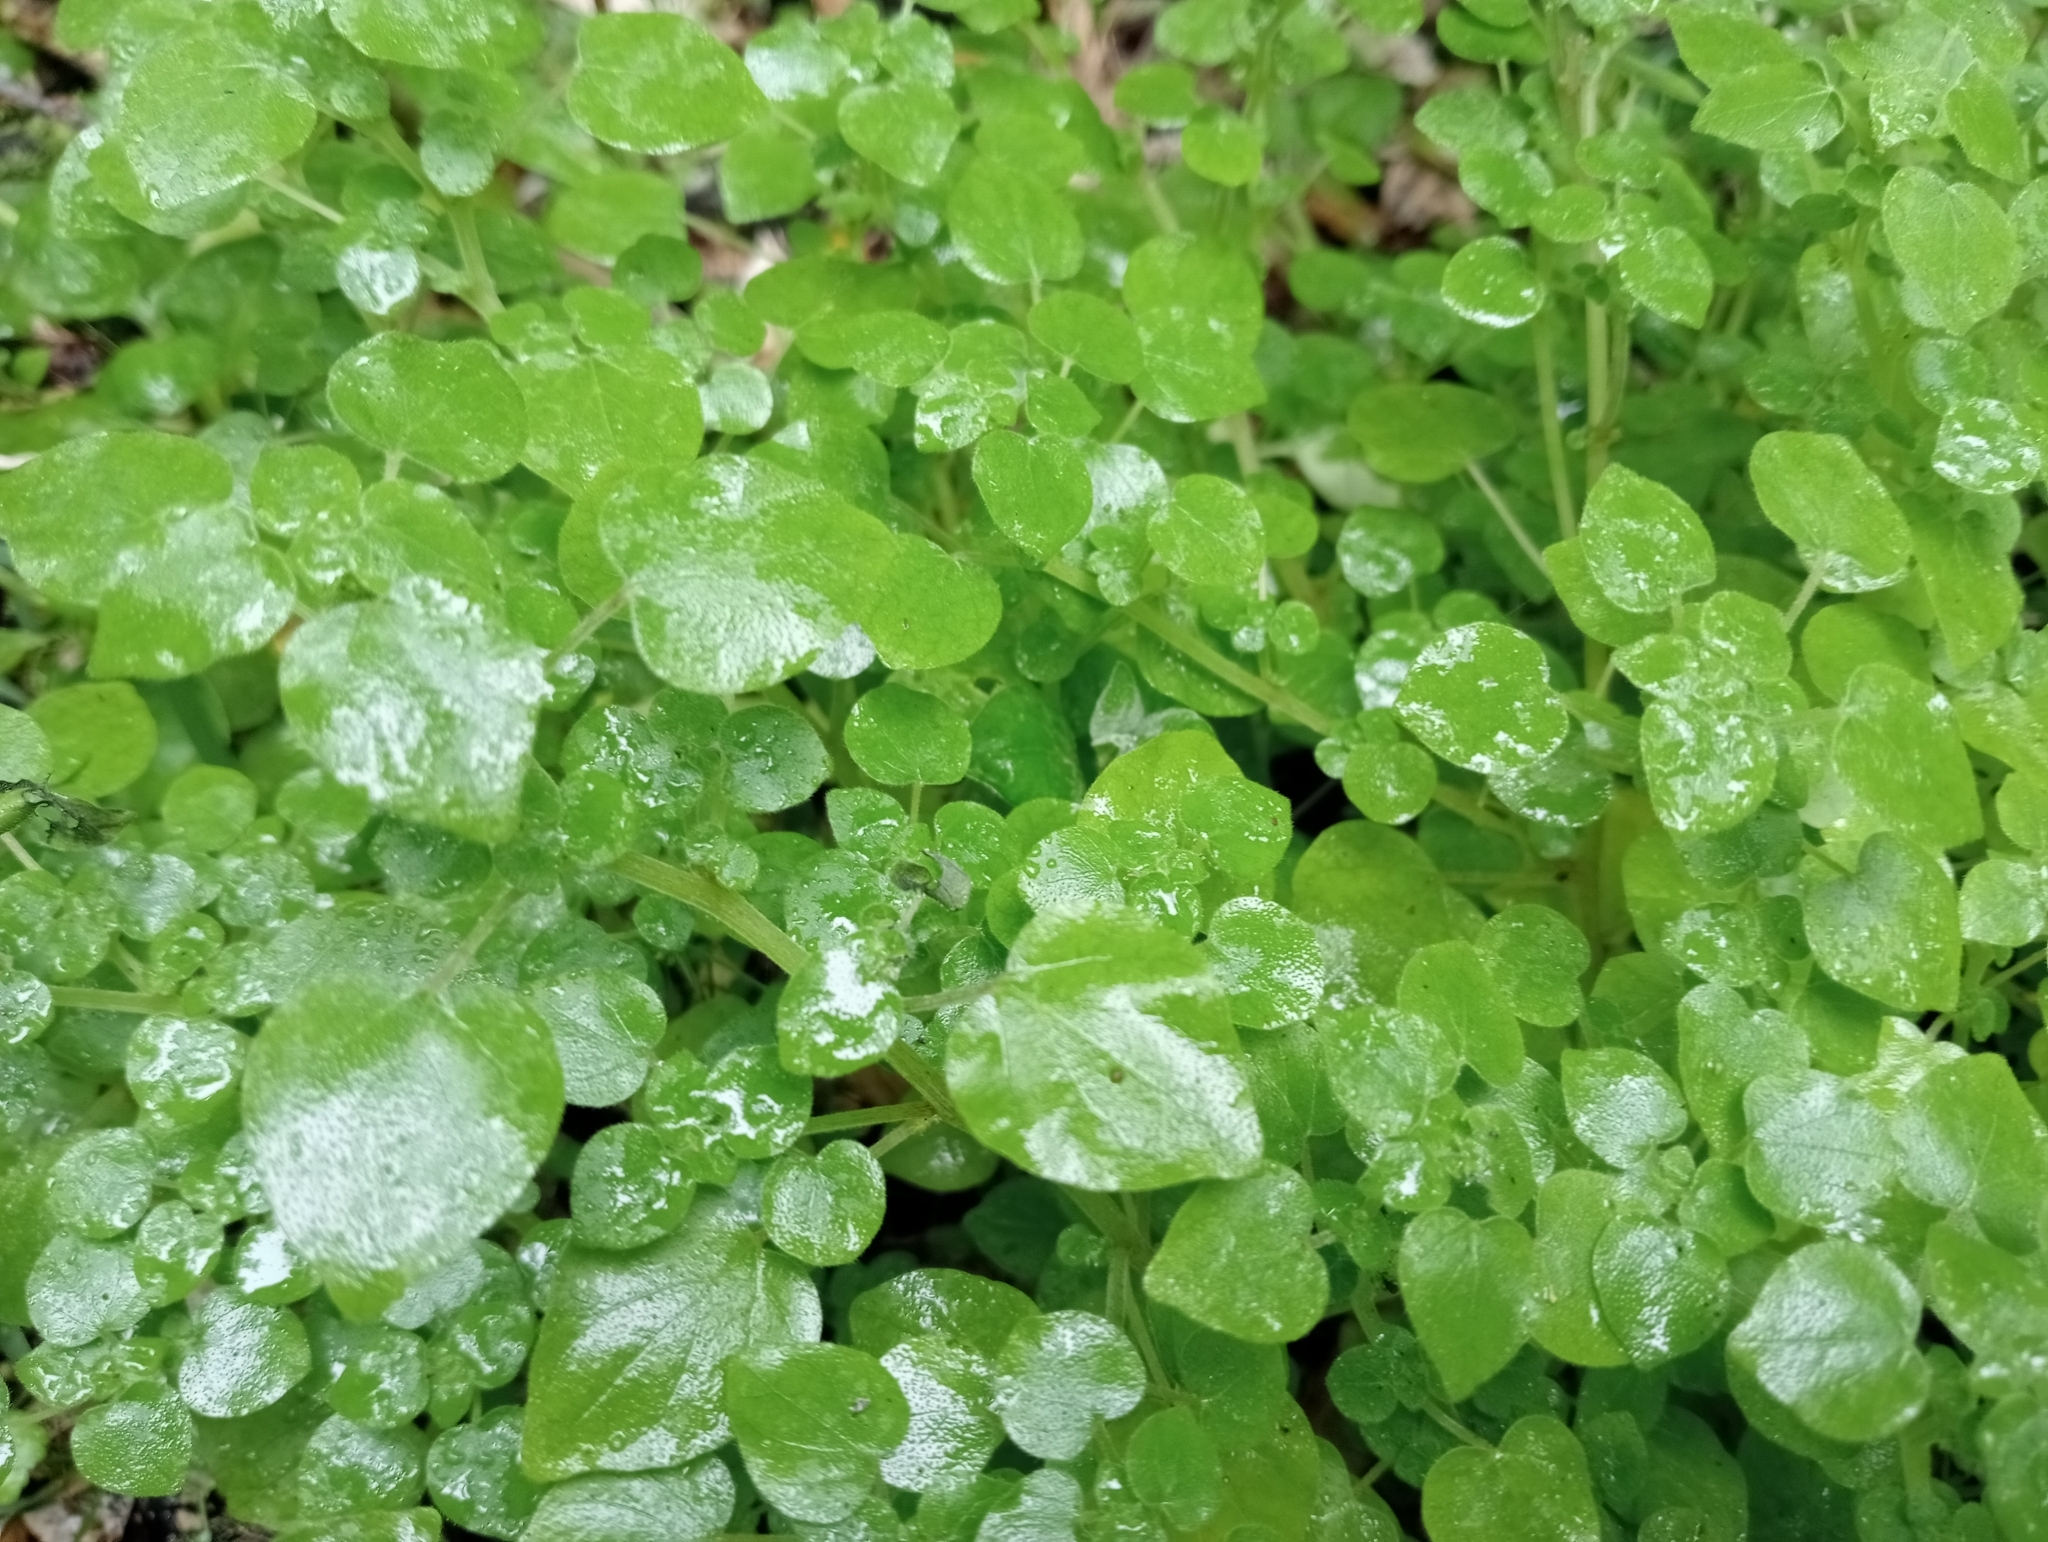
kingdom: Plantae
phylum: Tracheophyta
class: Magnoliopsida
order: Rosales
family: Urticaceae
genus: Parietaria
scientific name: Parietaria debilis
